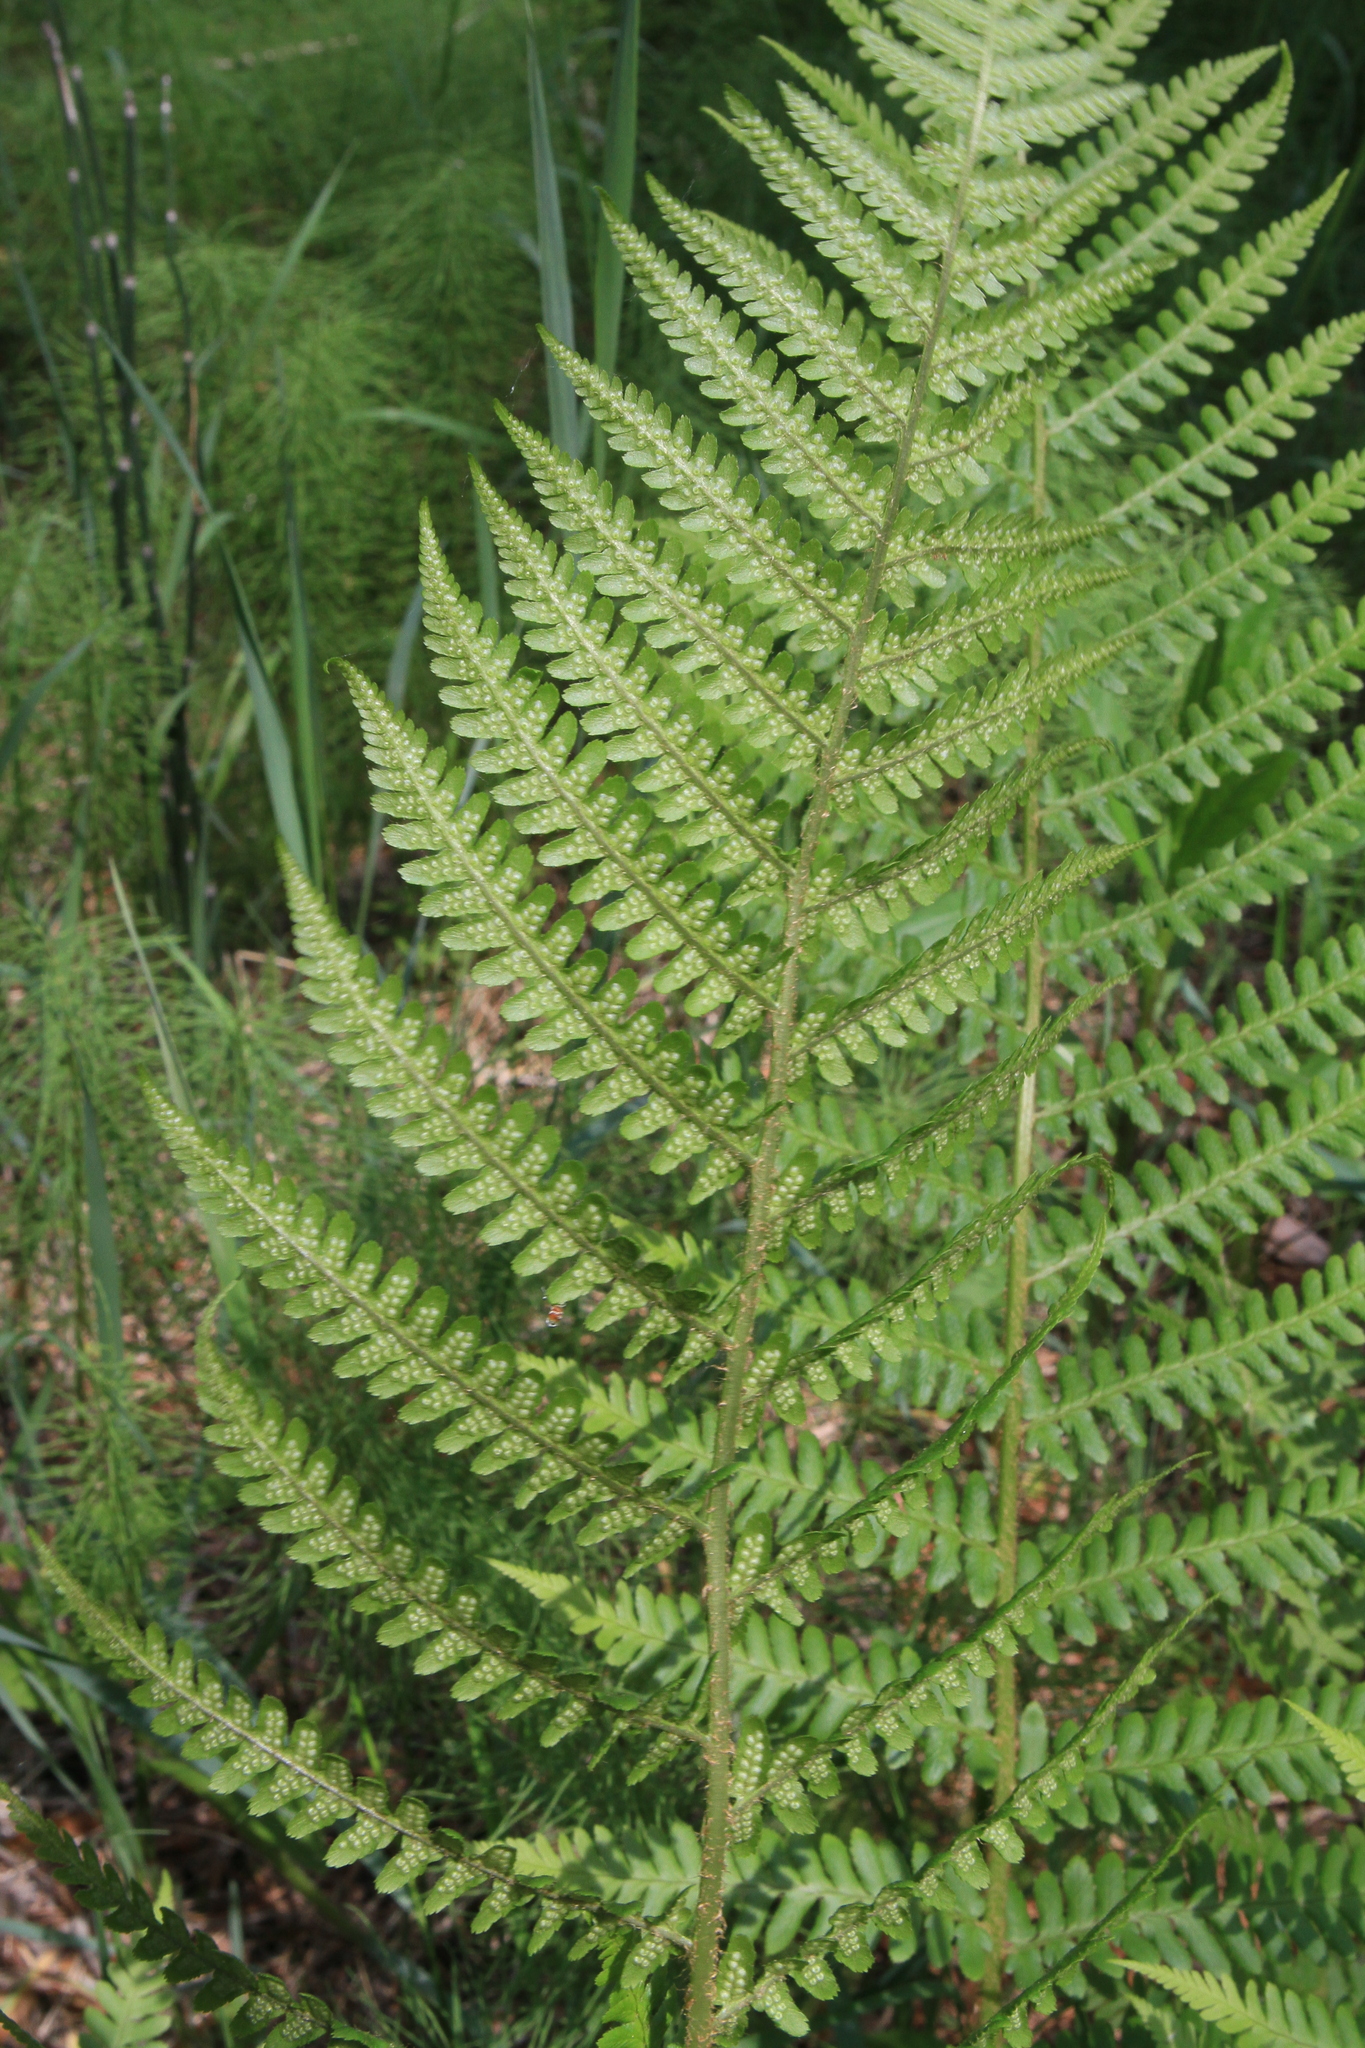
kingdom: Plantae
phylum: Tracheophyta
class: Polypodiopsida
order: Polypodiales
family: Dryopteridaceae
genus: Dryopteris
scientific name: Dryopteris filix-mas
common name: Male fern
